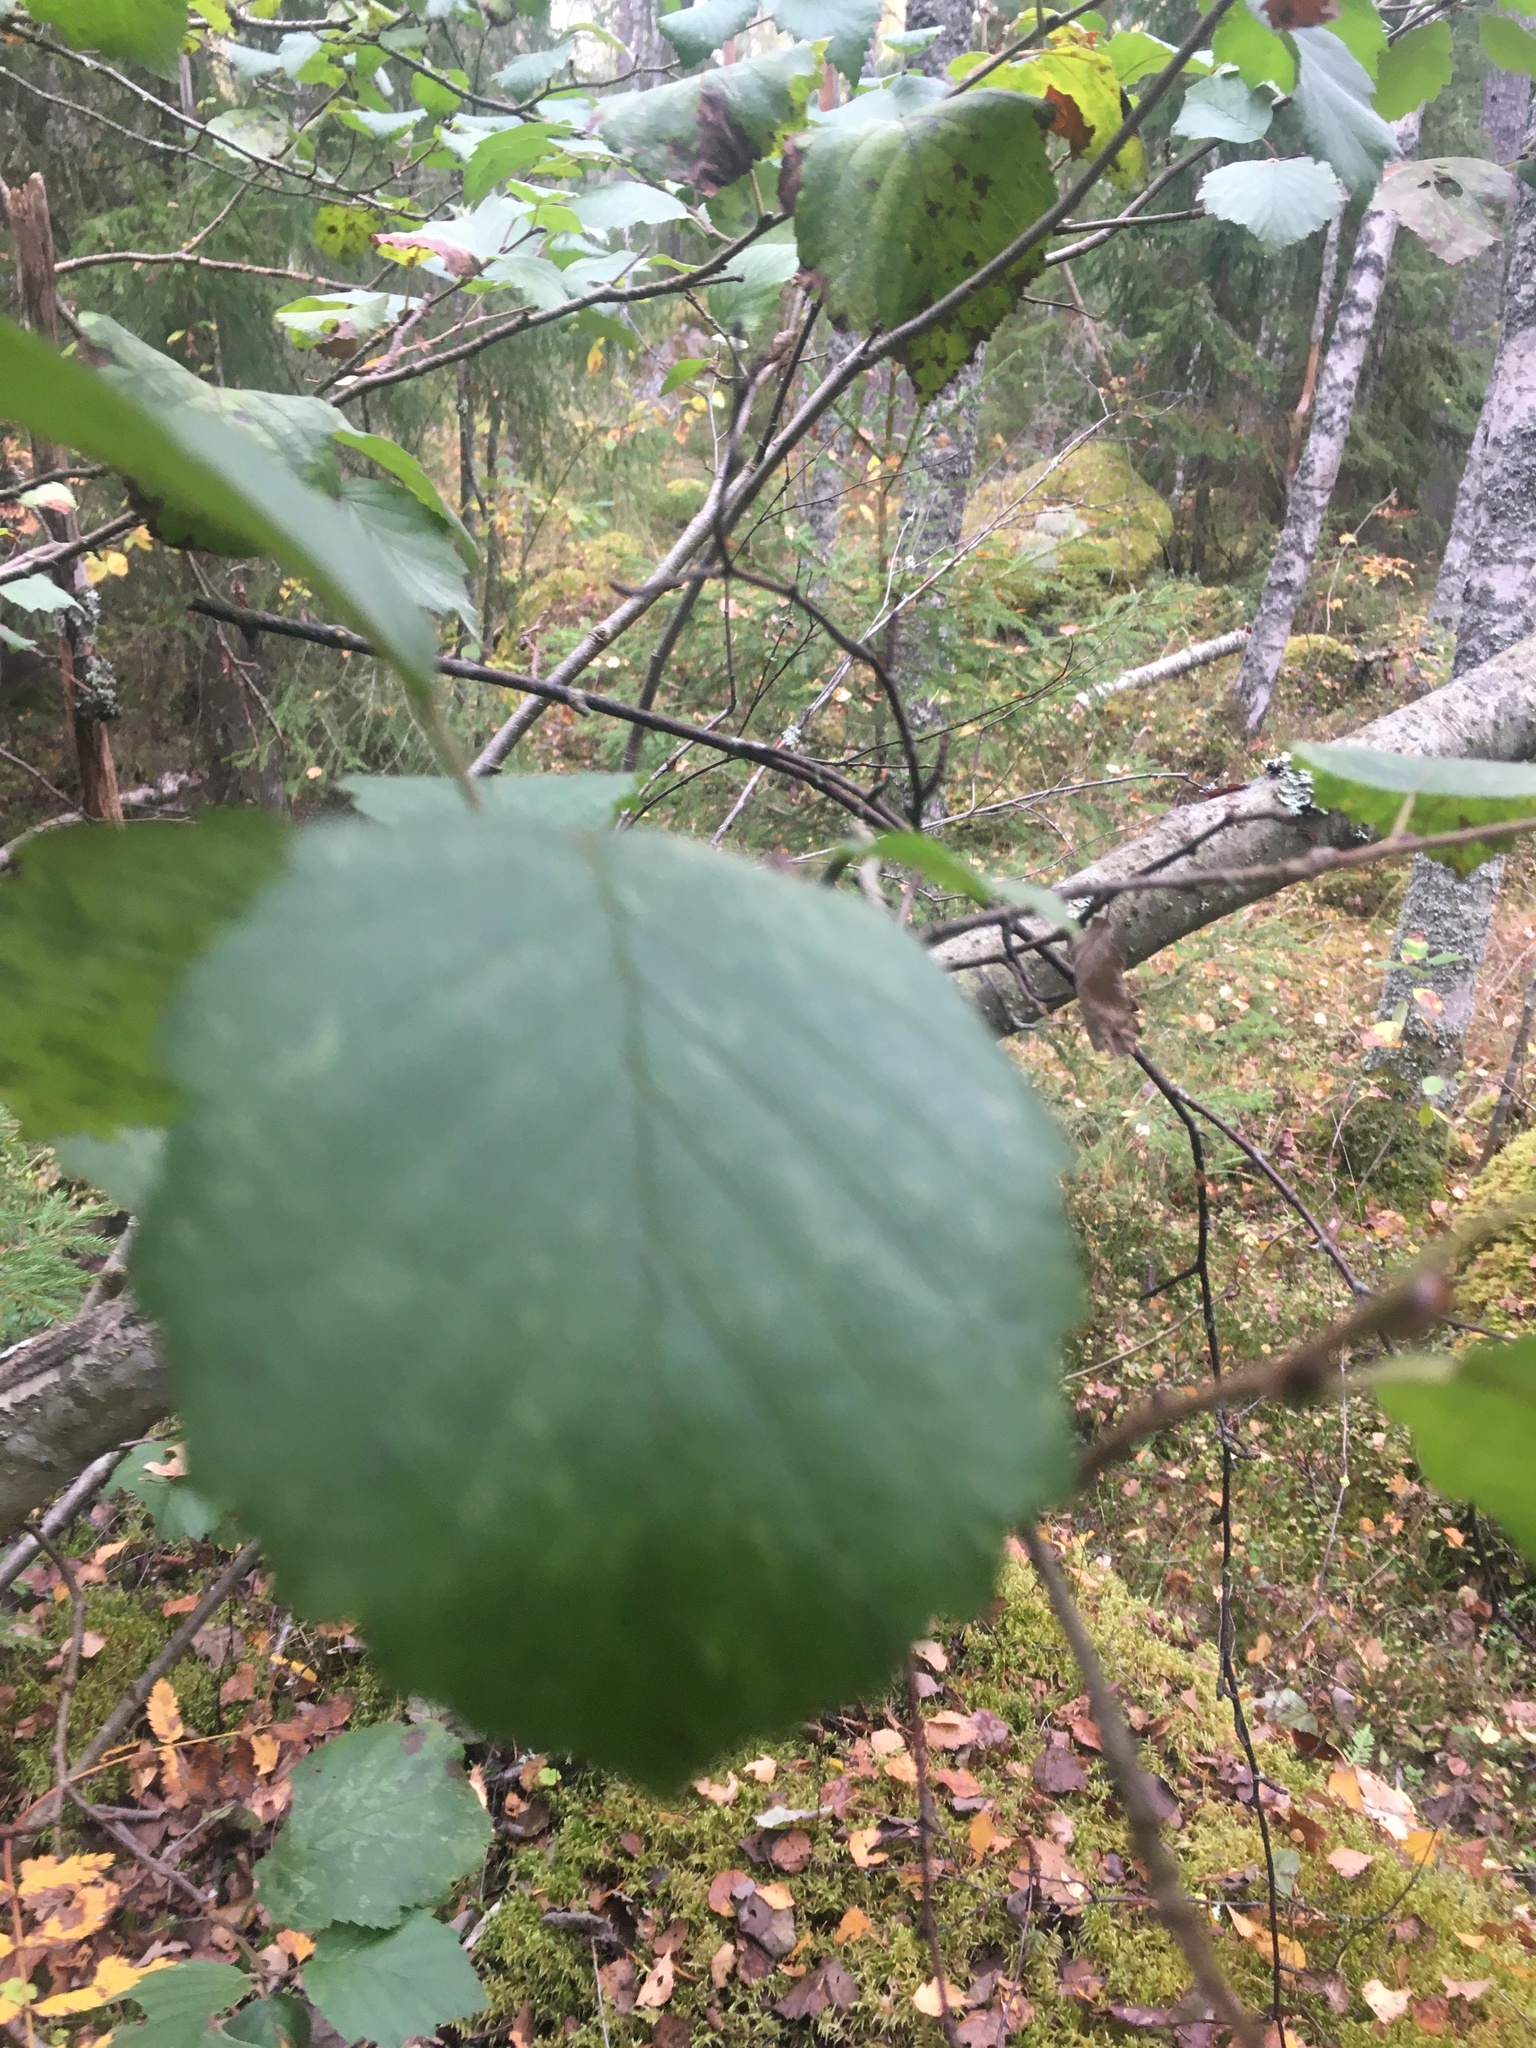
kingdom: Plantae
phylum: Tracheophyta
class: Magnoliopsida
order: Fagales
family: Betulaceae
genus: Alnus
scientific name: Alnus incana
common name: Grey alder
